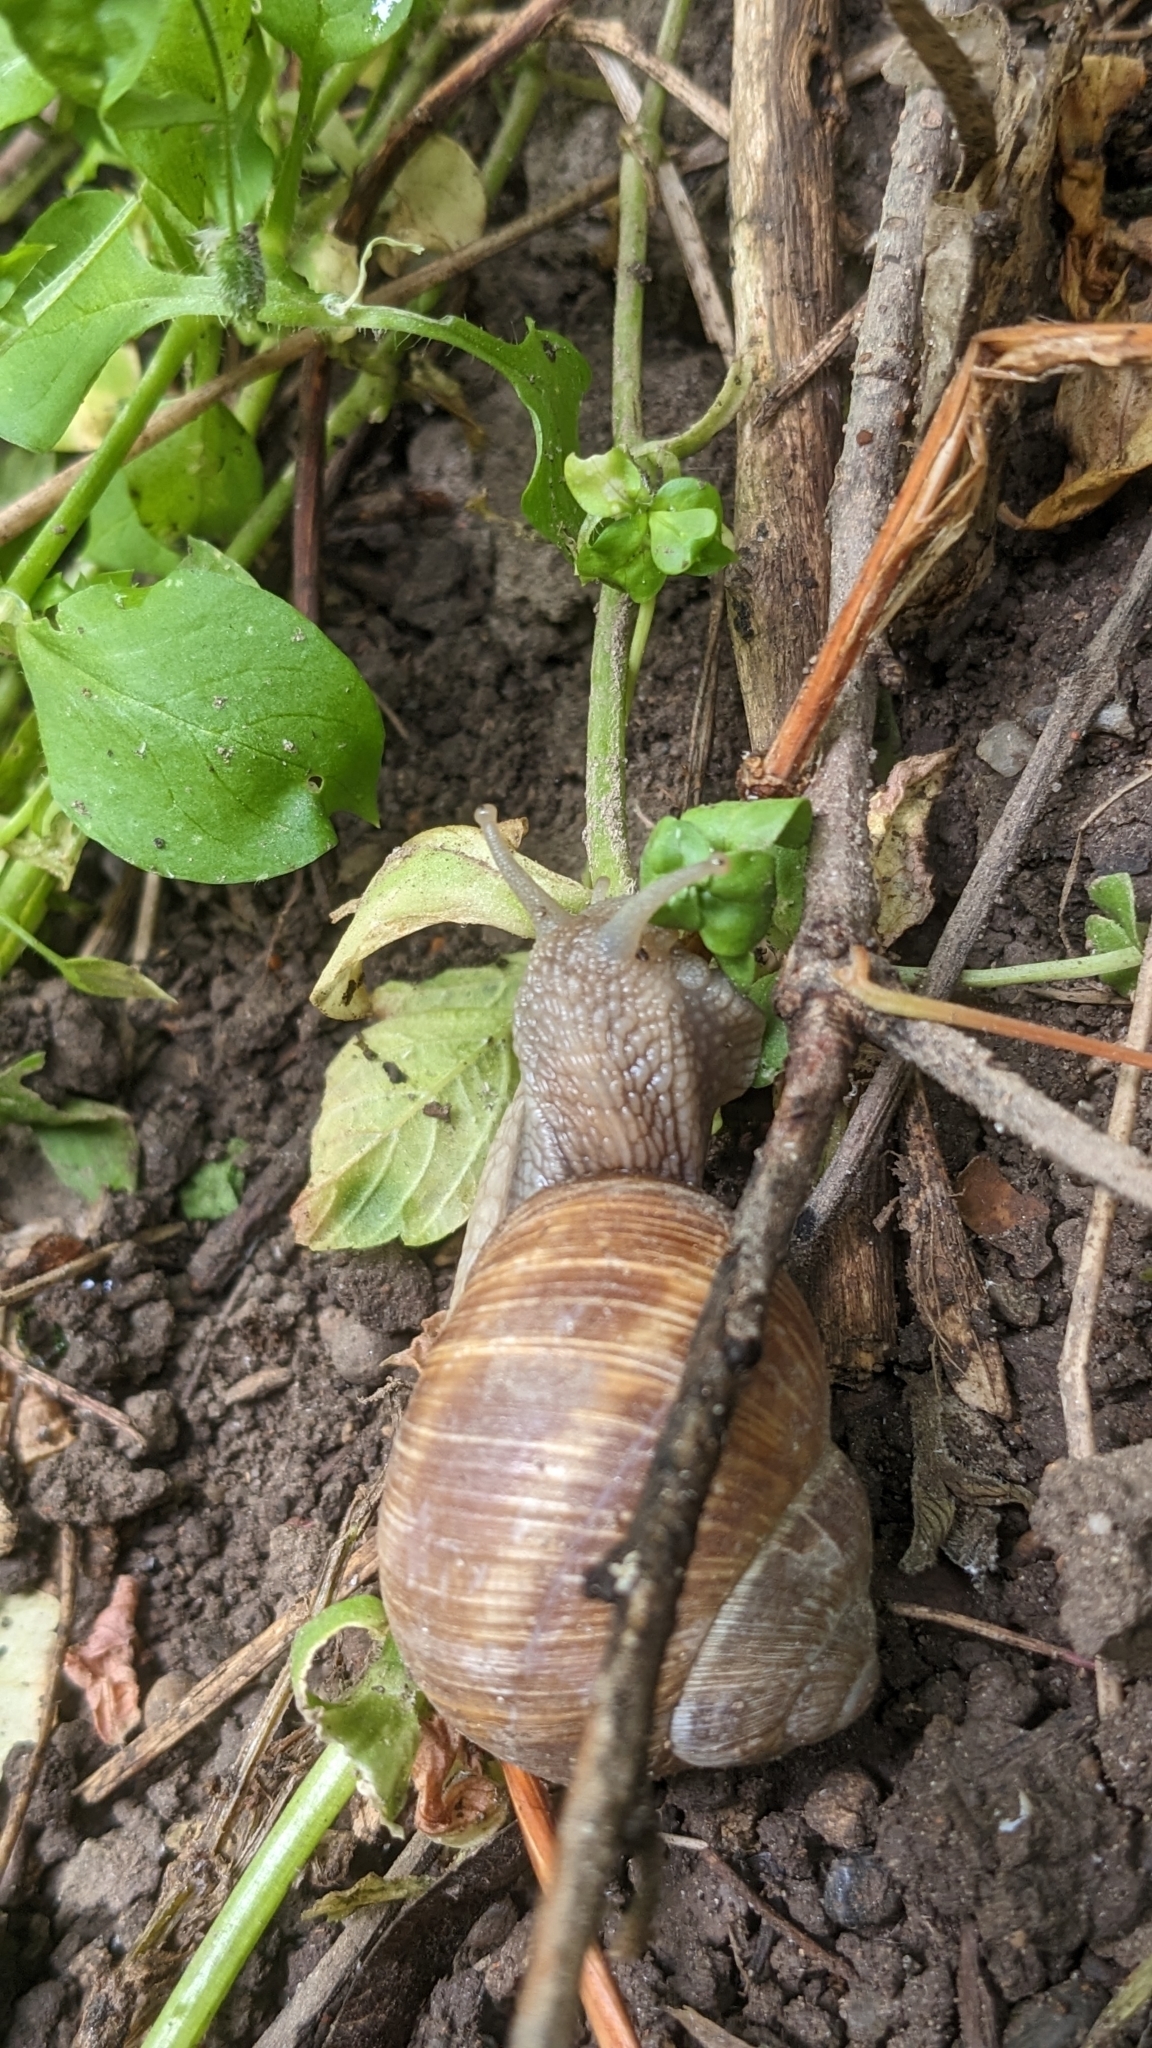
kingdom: Animalia
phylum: Mollusca
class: Gastropoda
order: Stylommatophora
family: Helicidae
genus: Helix
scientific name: Helix pomatia
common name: Roman snail
